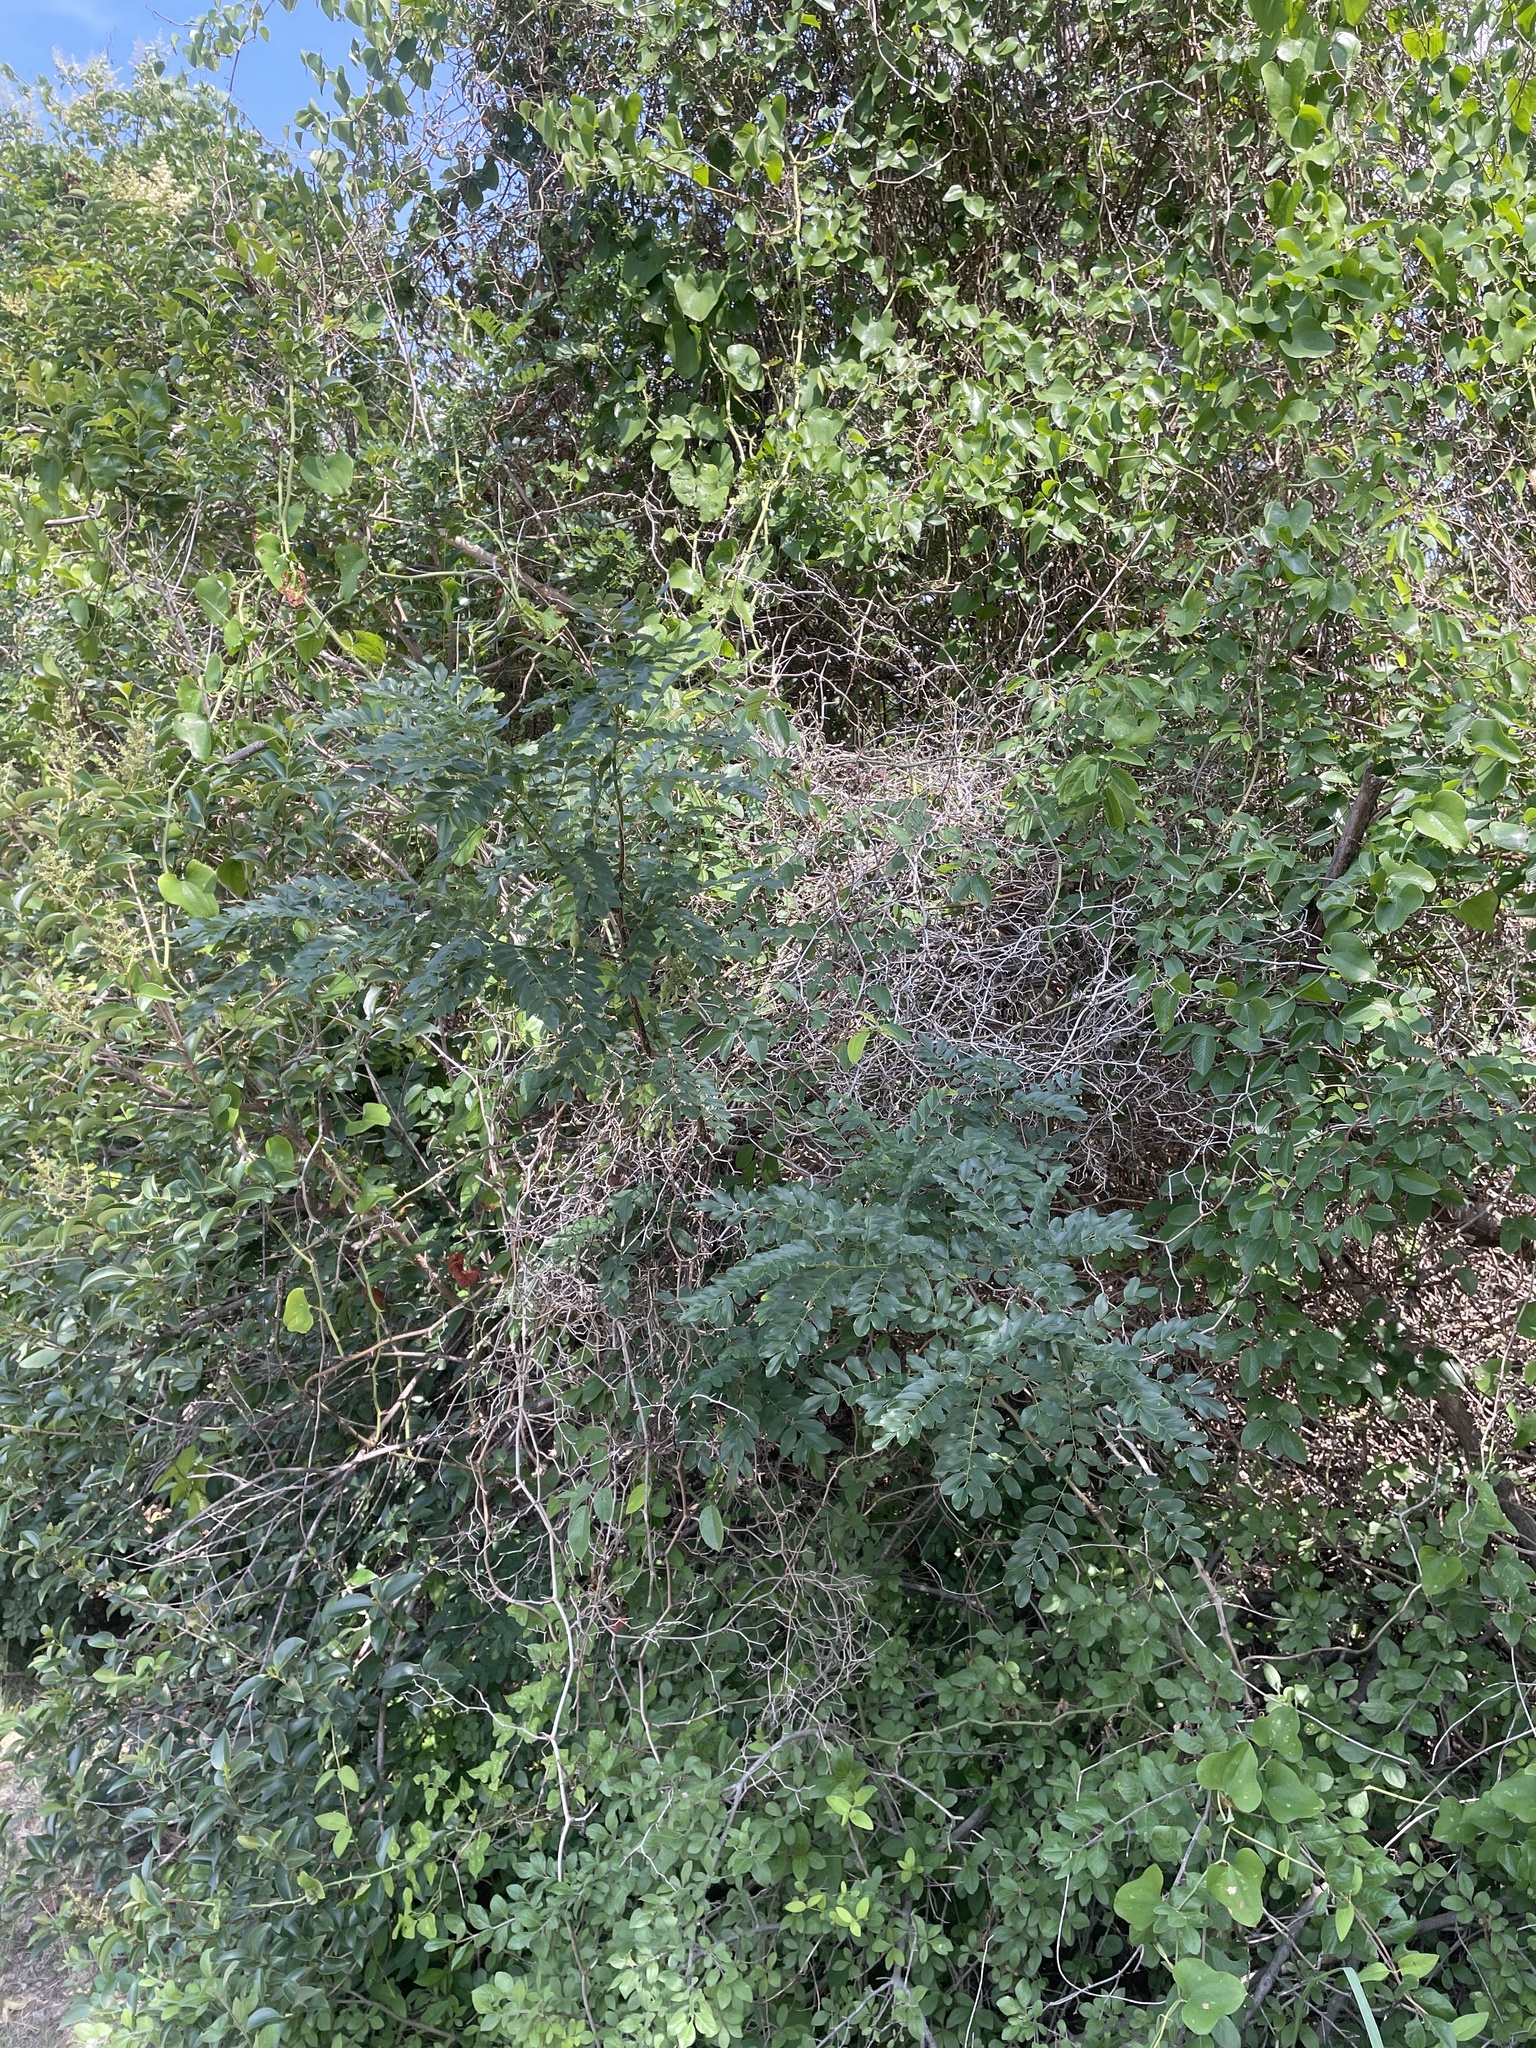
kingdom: Plantae
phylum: Tracheophyta
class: Magnoliopsida
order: Fabales
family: Fabaceae
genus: Styphnolobium
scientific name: Styphnolobium affine
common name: Texas sophora
